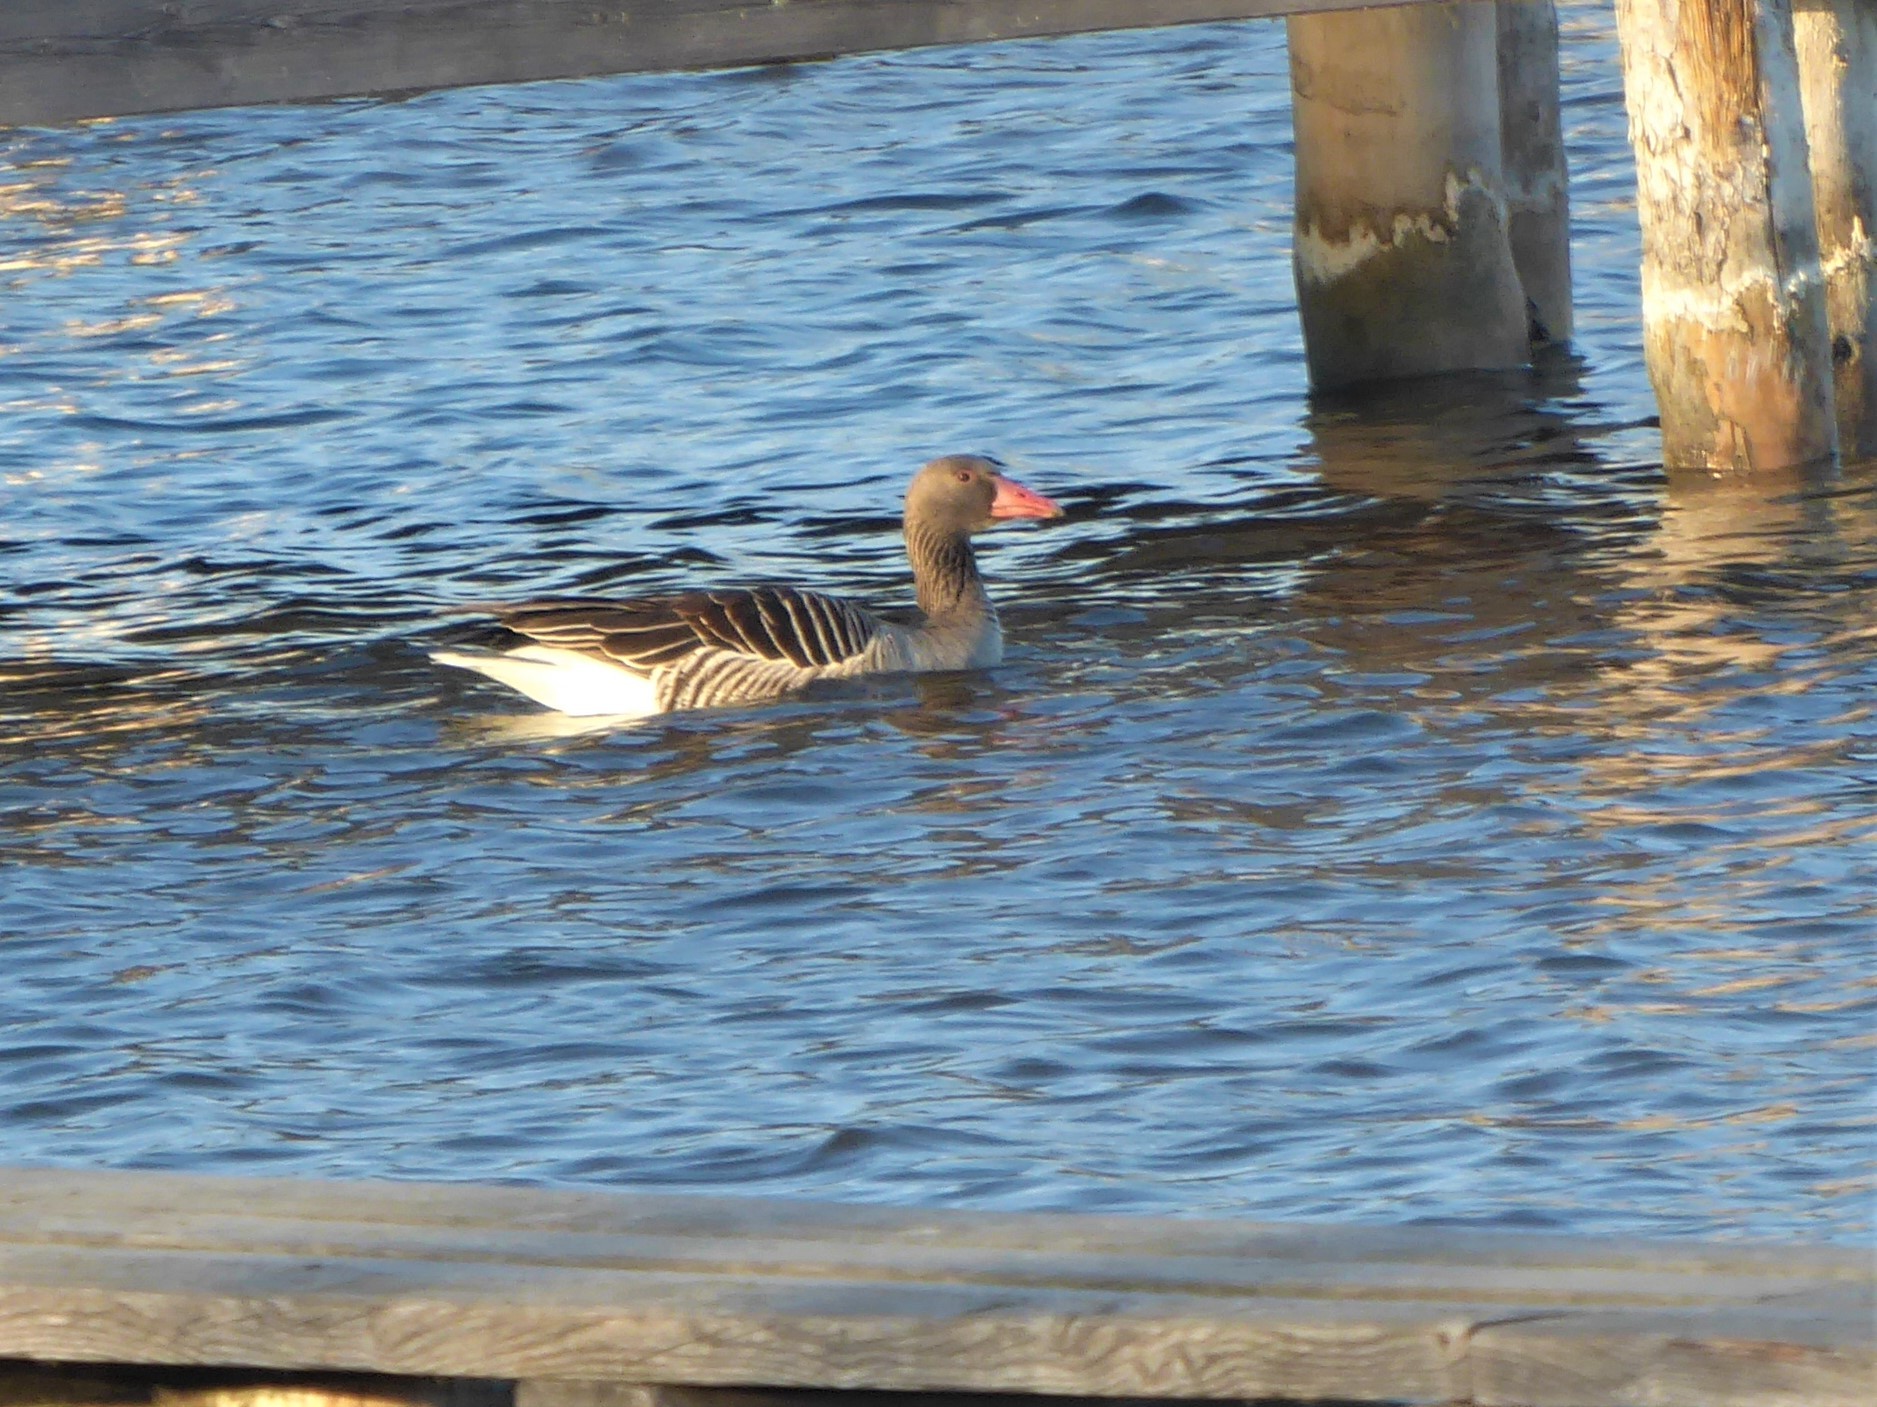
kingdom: Animalia
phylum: Chordata
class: Aves
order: Anseriformes
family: Anatidae
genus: Anser
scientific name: Anser anser
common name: Greylag goose
